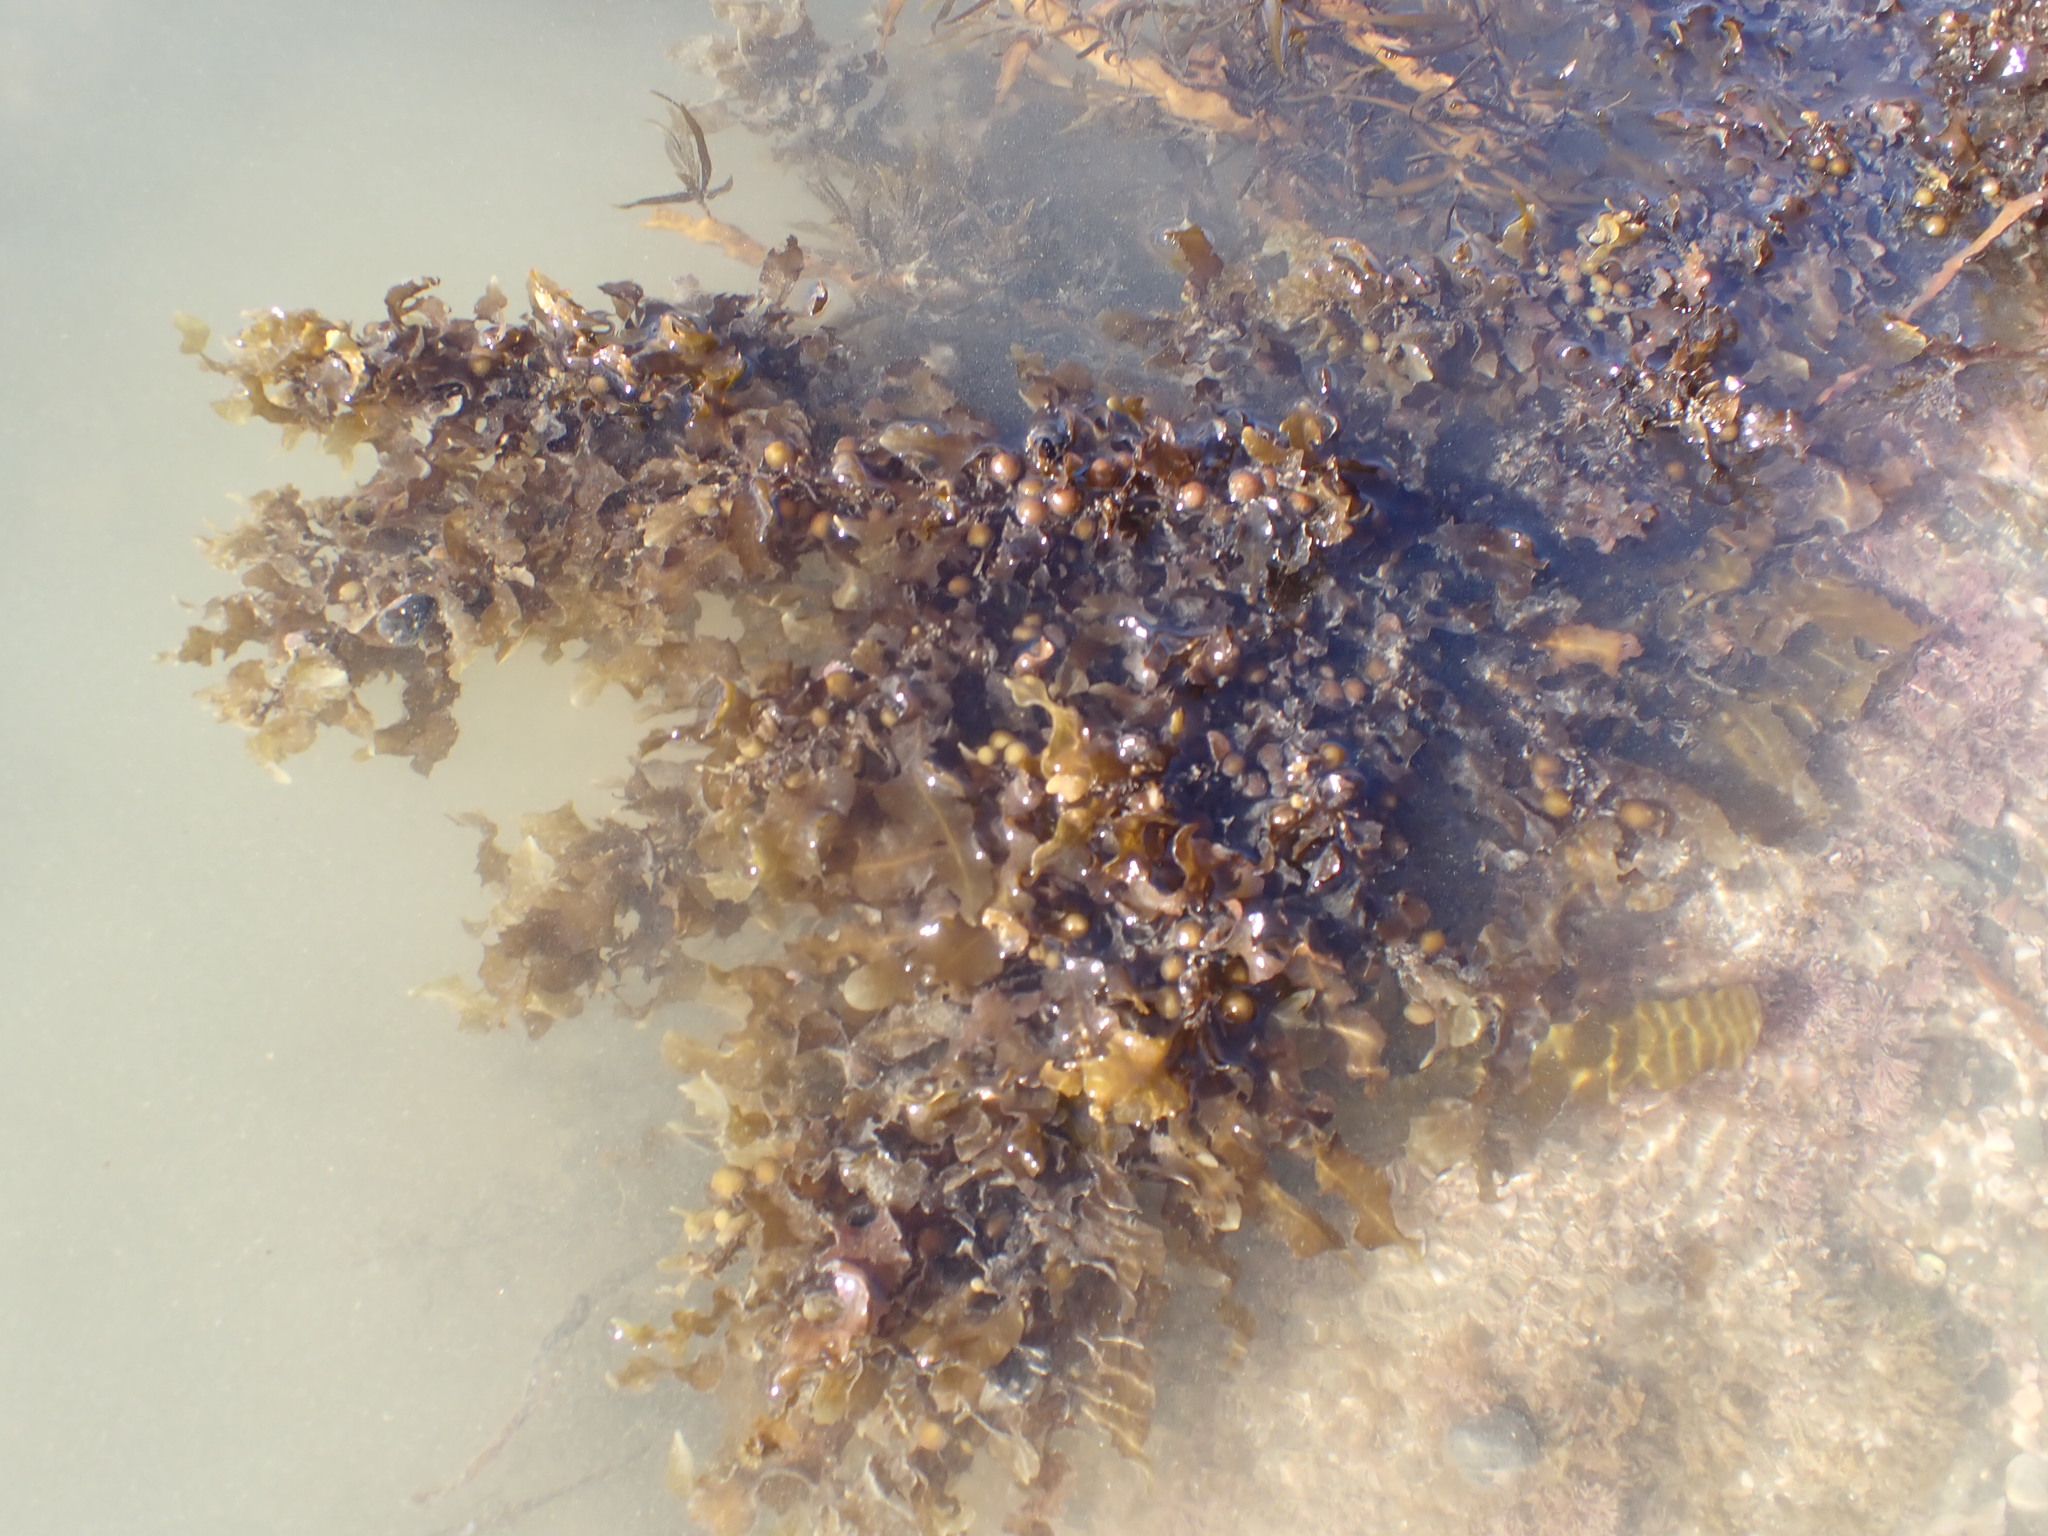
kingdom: Chromista
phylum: Ochrophyta
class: Phaeophyceae
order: Fucales
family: Sargassaceae
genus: Sargassum
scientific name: Sargassum sinclairii
